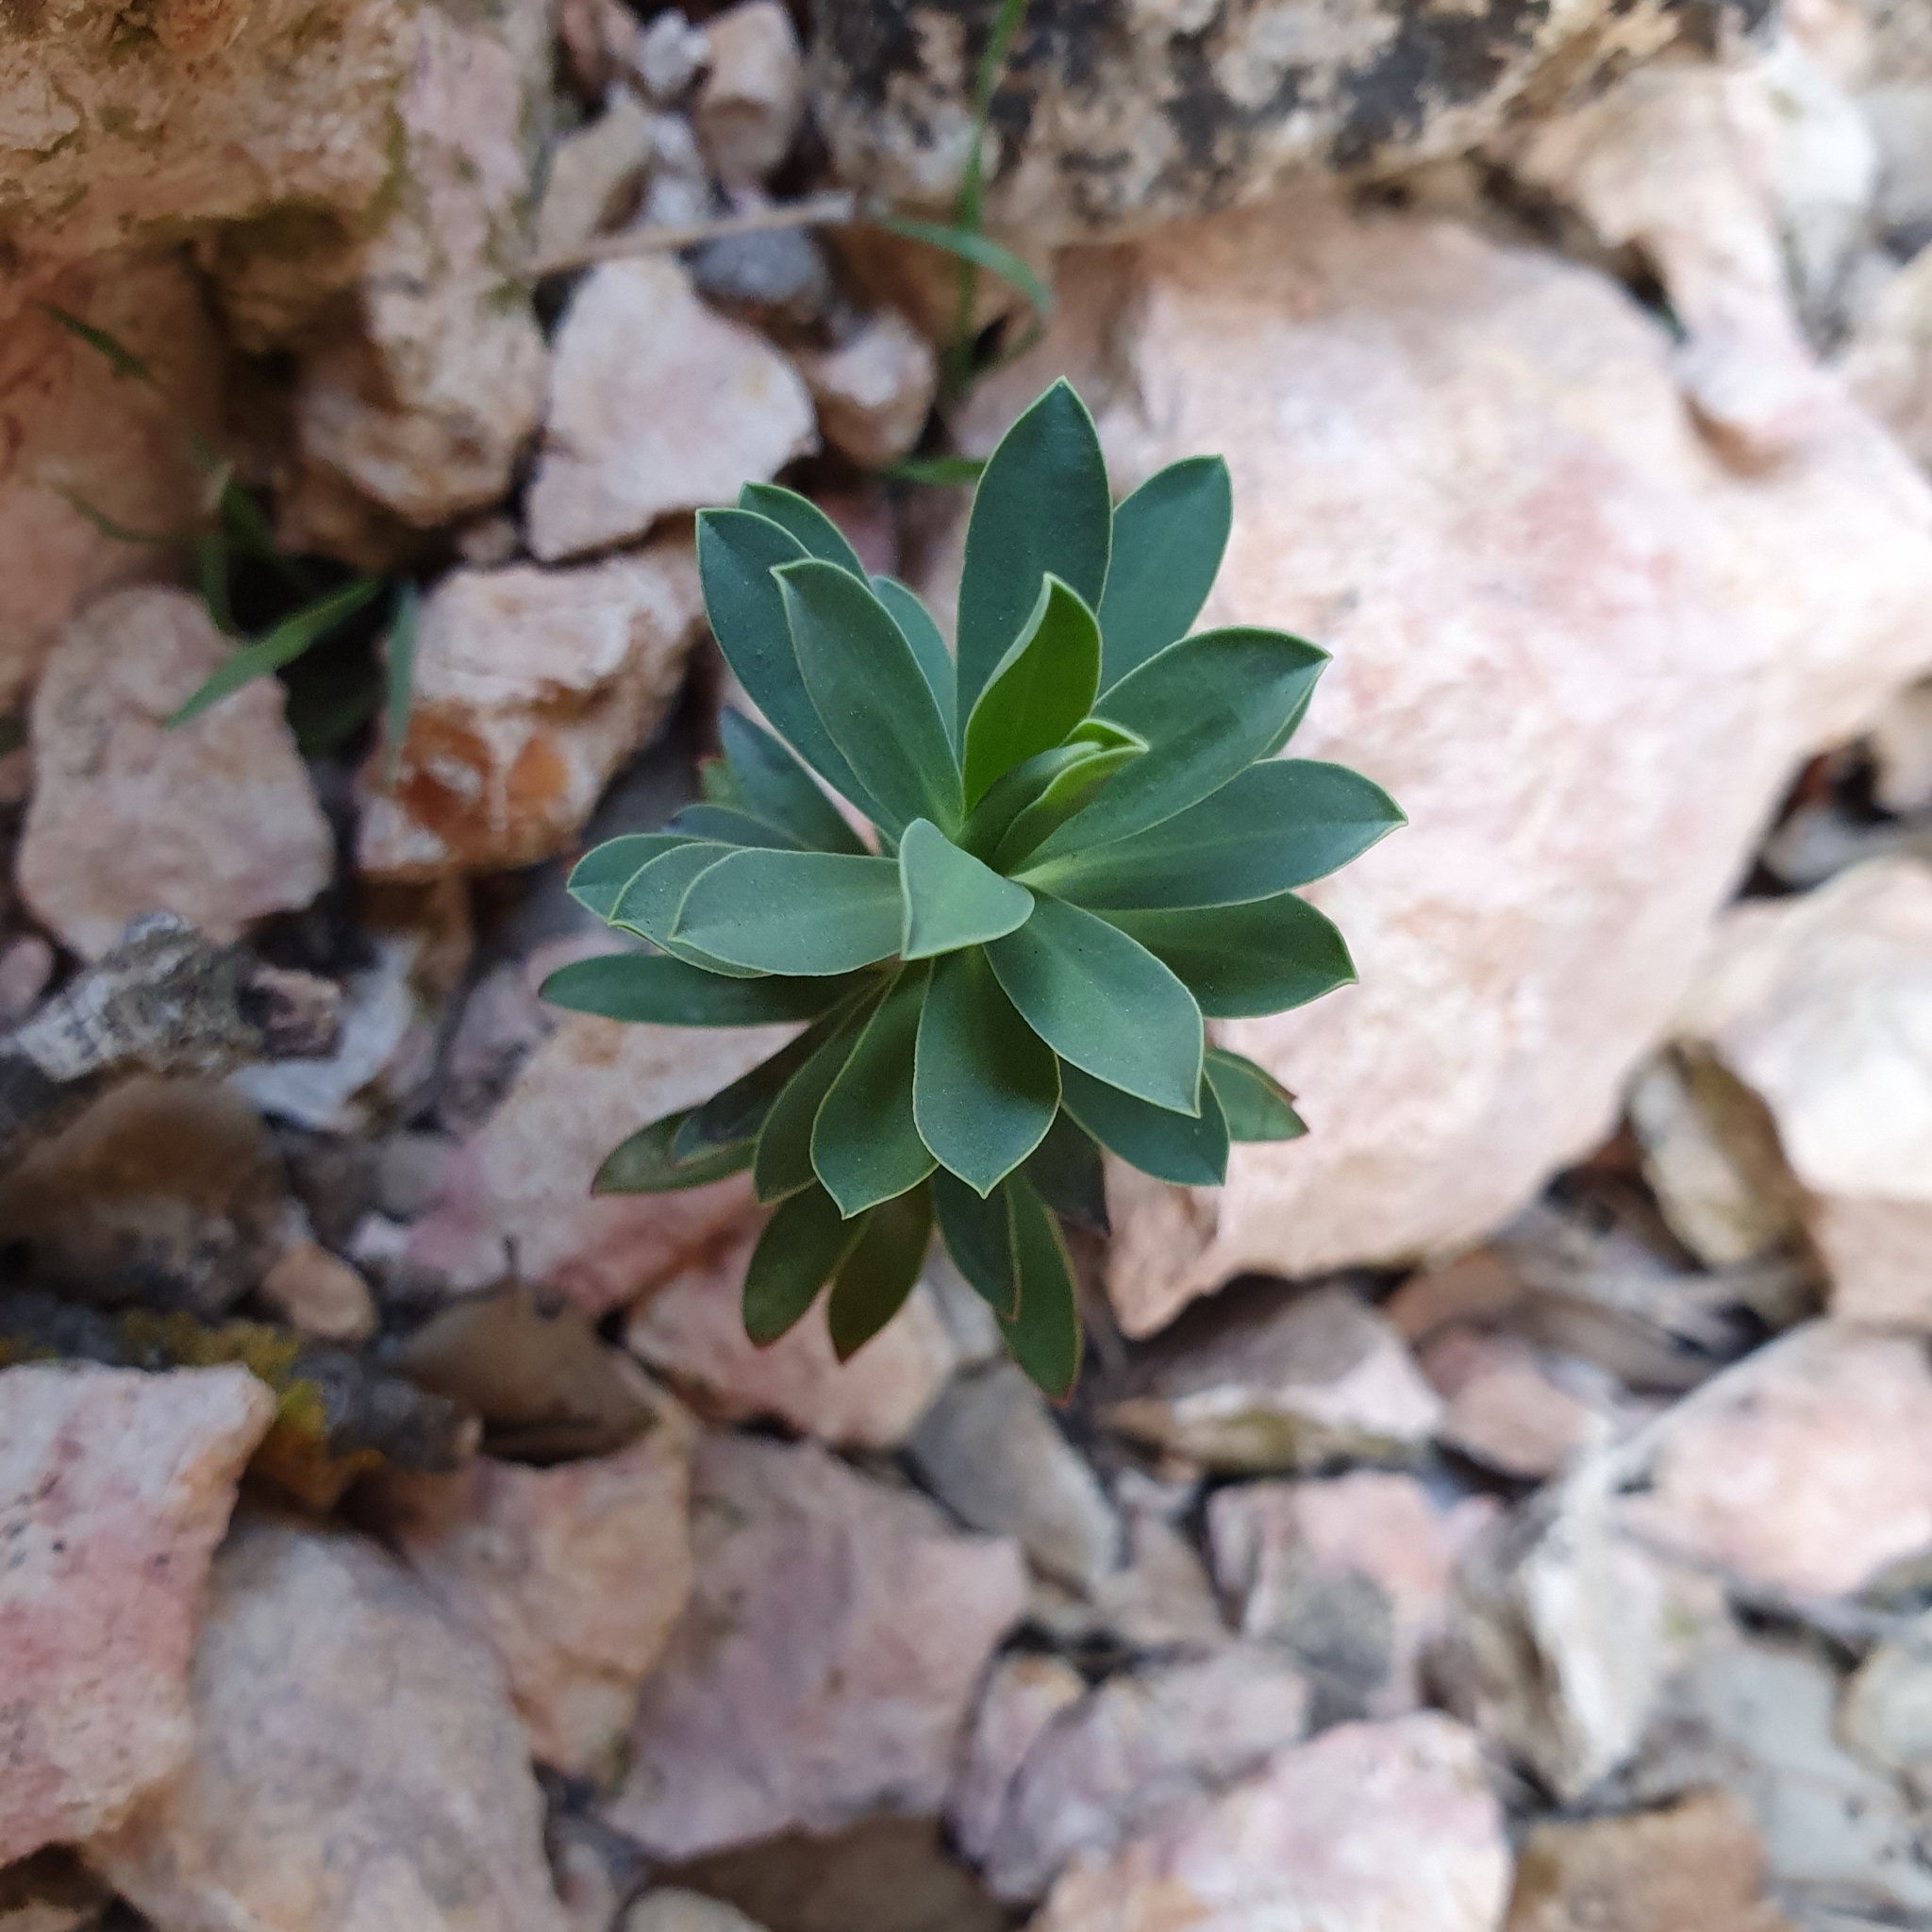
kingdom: Plantae
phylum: Tracheophyta
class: Magnoliopsida
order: Malpighiales
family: Euphorbiaceae
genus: Euphorbia
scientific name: Euphorbia nicaeensis
